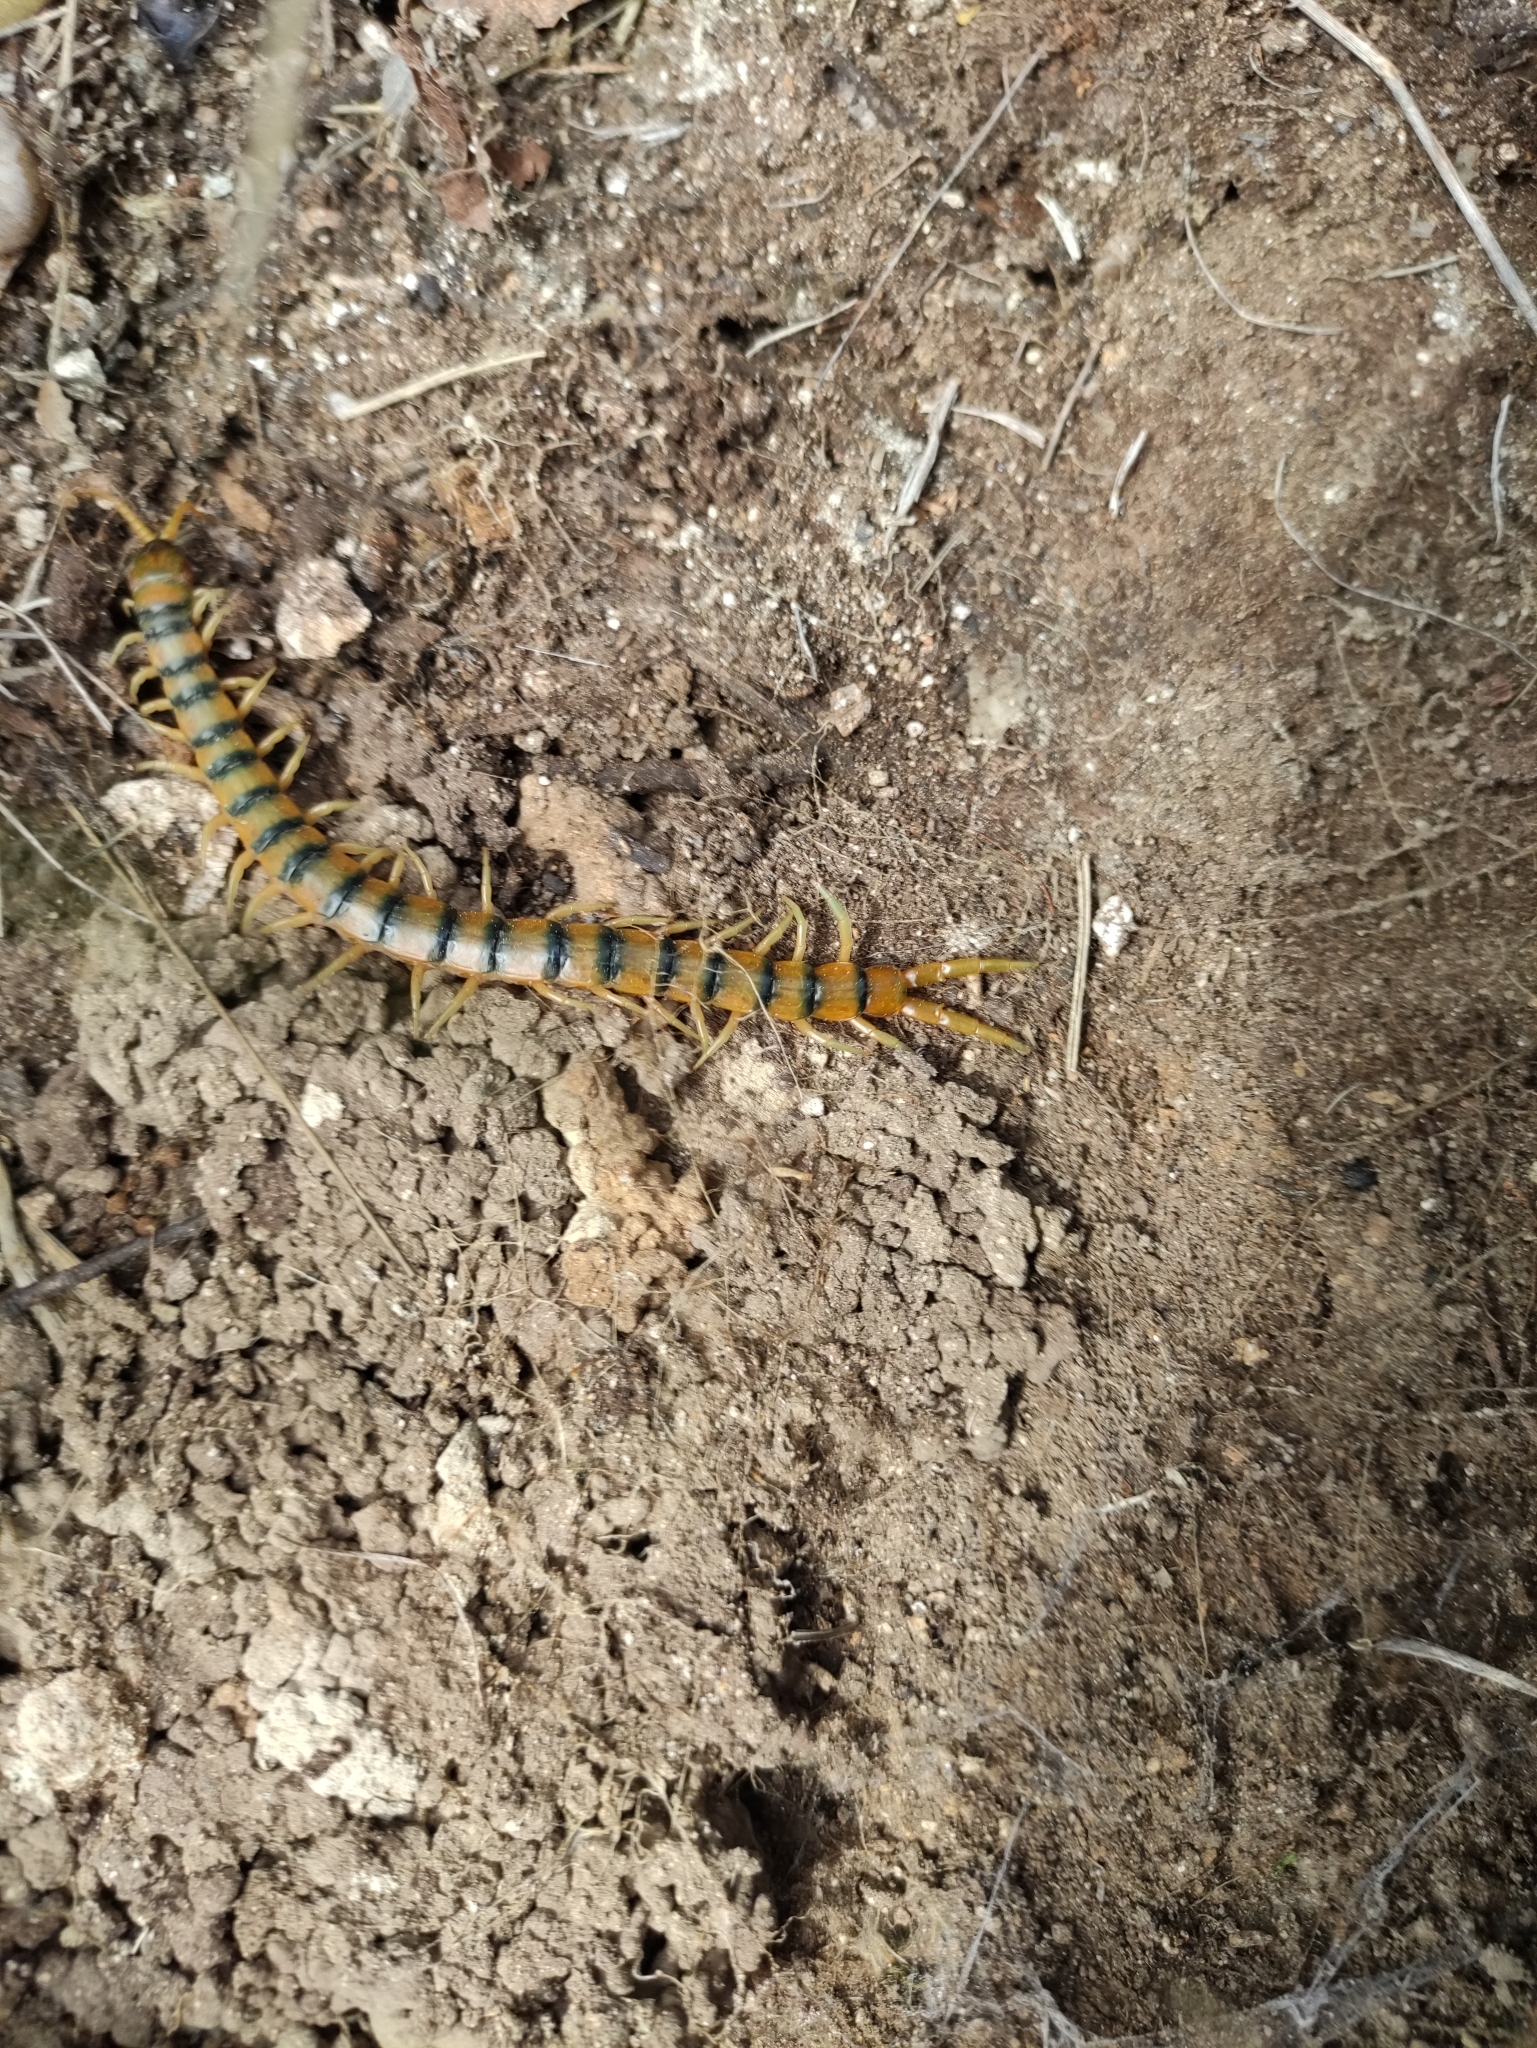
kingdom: Animalia
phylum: Arthropoda
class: Chilopoda
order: Scolopendromorpha
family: Scolopendridae
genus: Scolopendra
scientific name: Scolopendra cingulata
